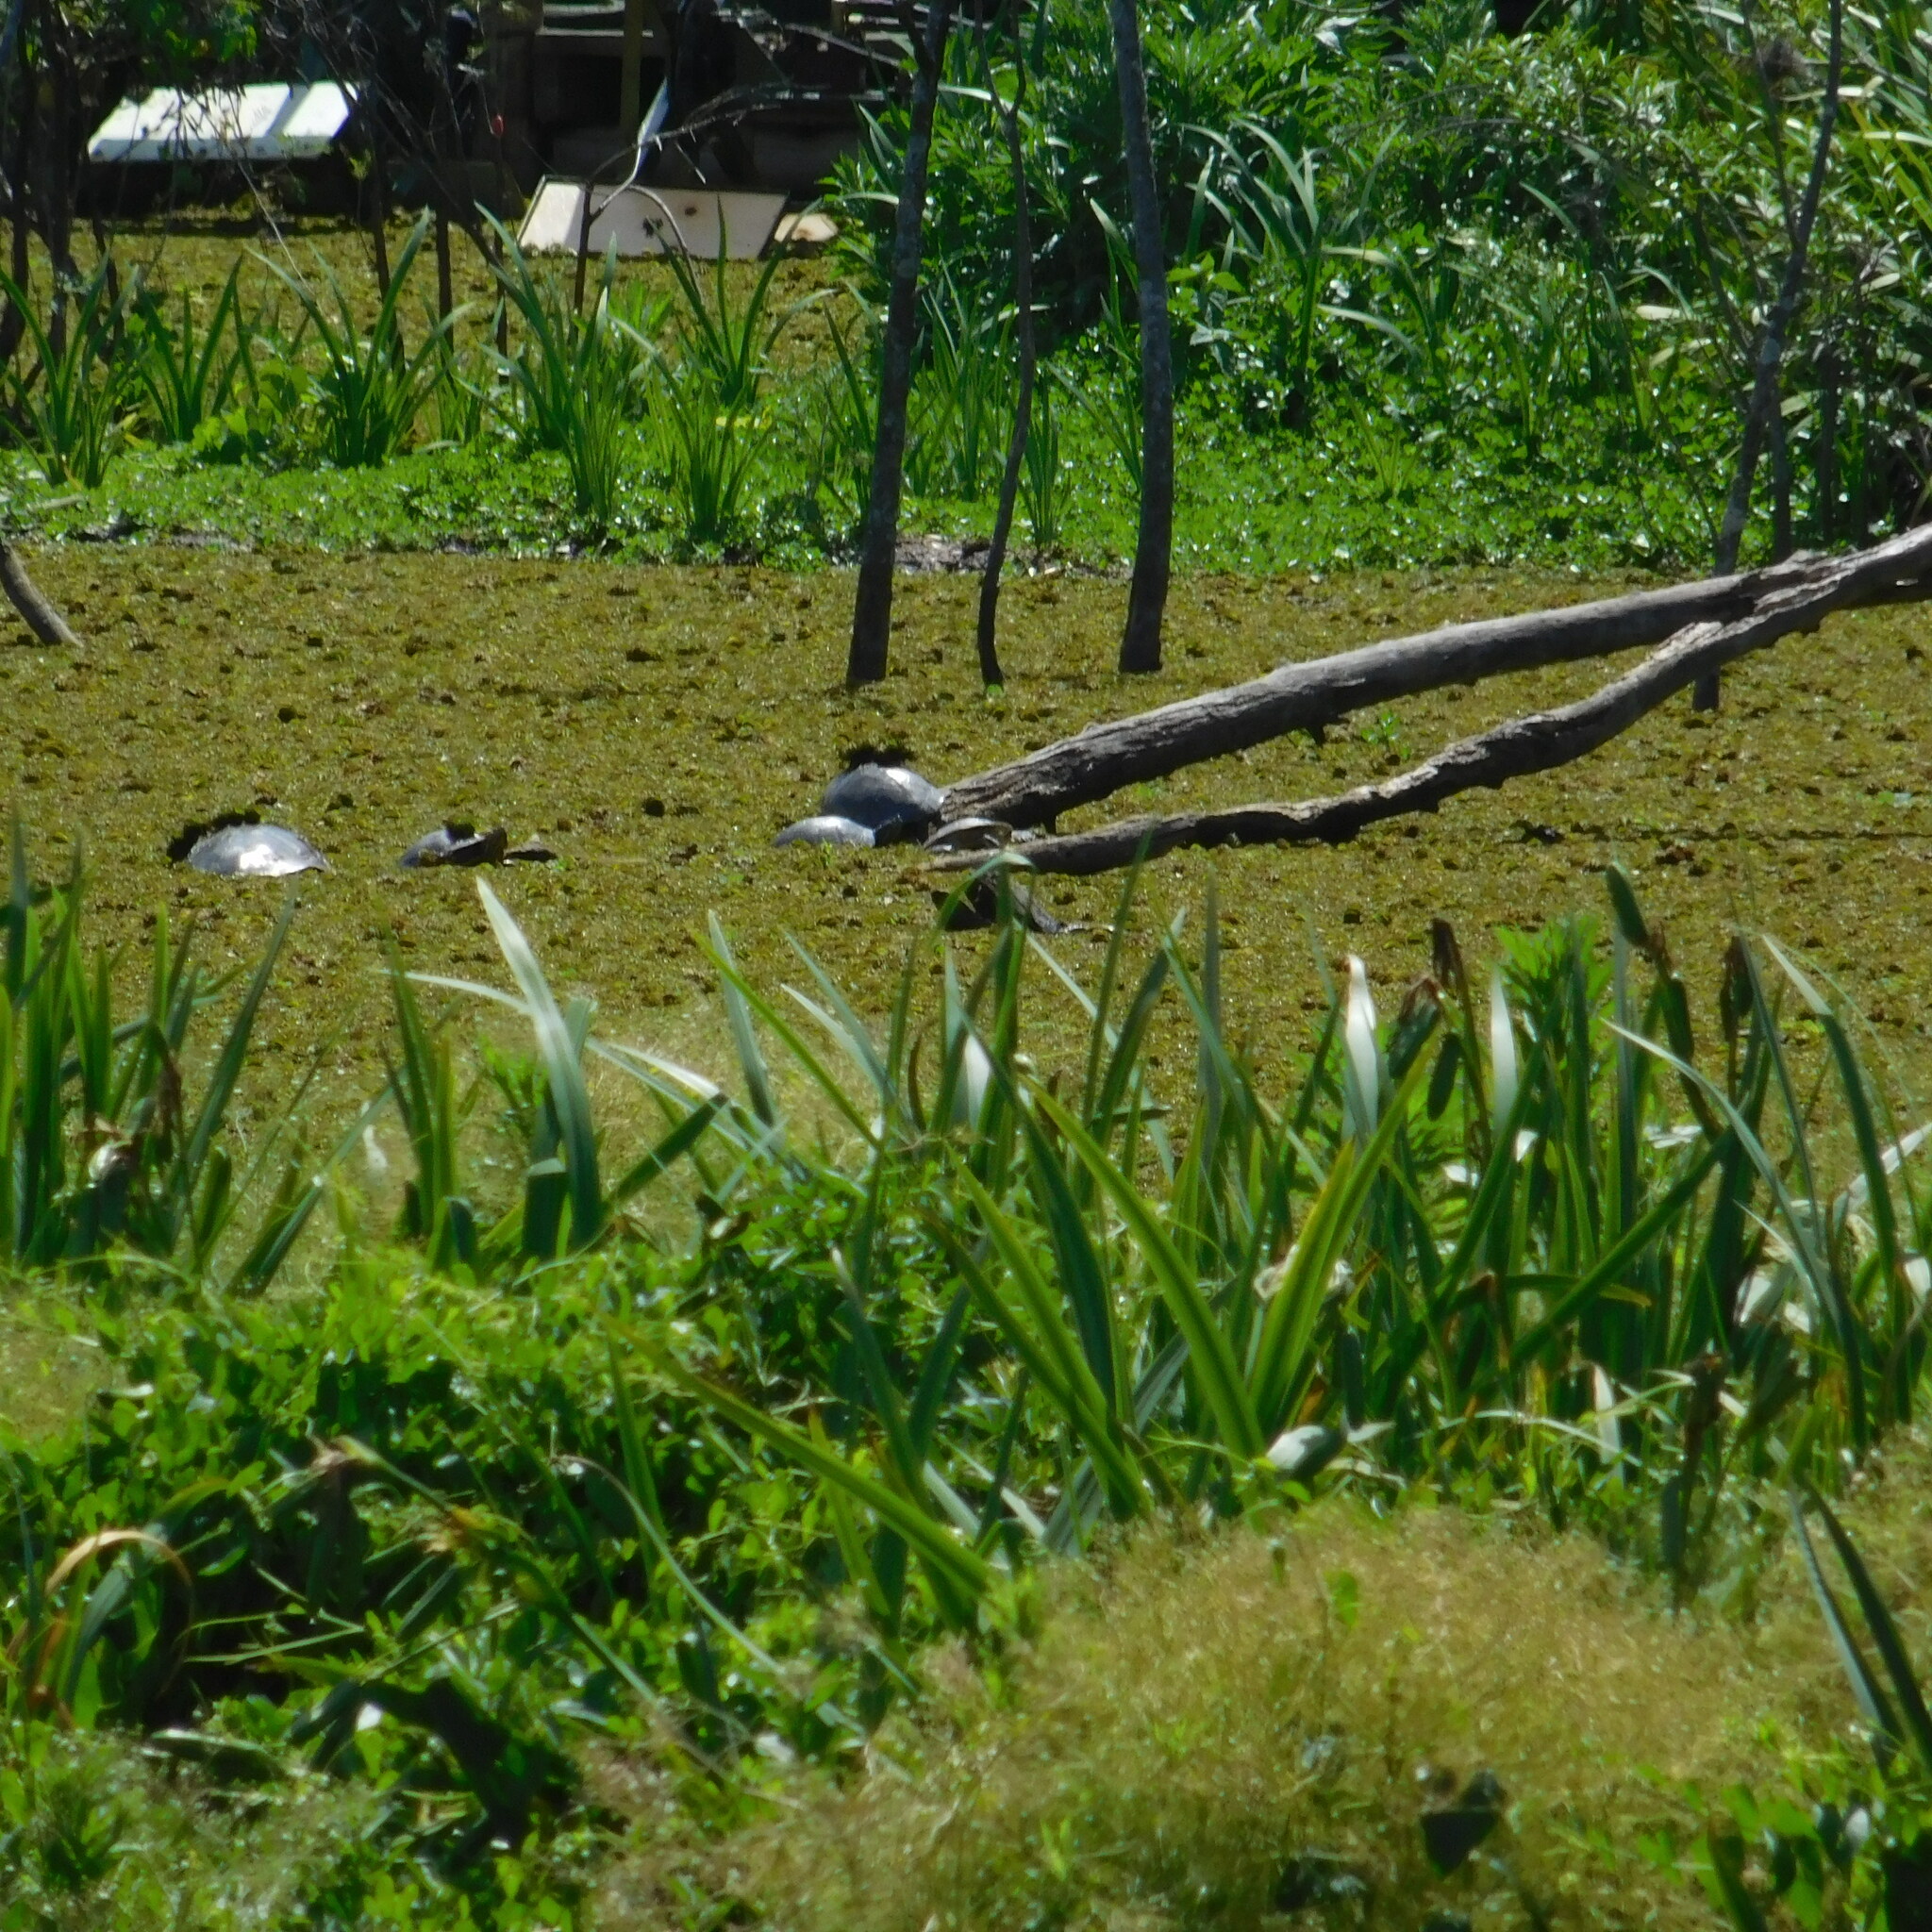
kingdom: Animalia
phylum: Chordata
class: Testudines
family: Chelidae
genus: Phrynops
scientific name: Phrynops hilarii
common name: Side-necked turtle of saint hillaire
